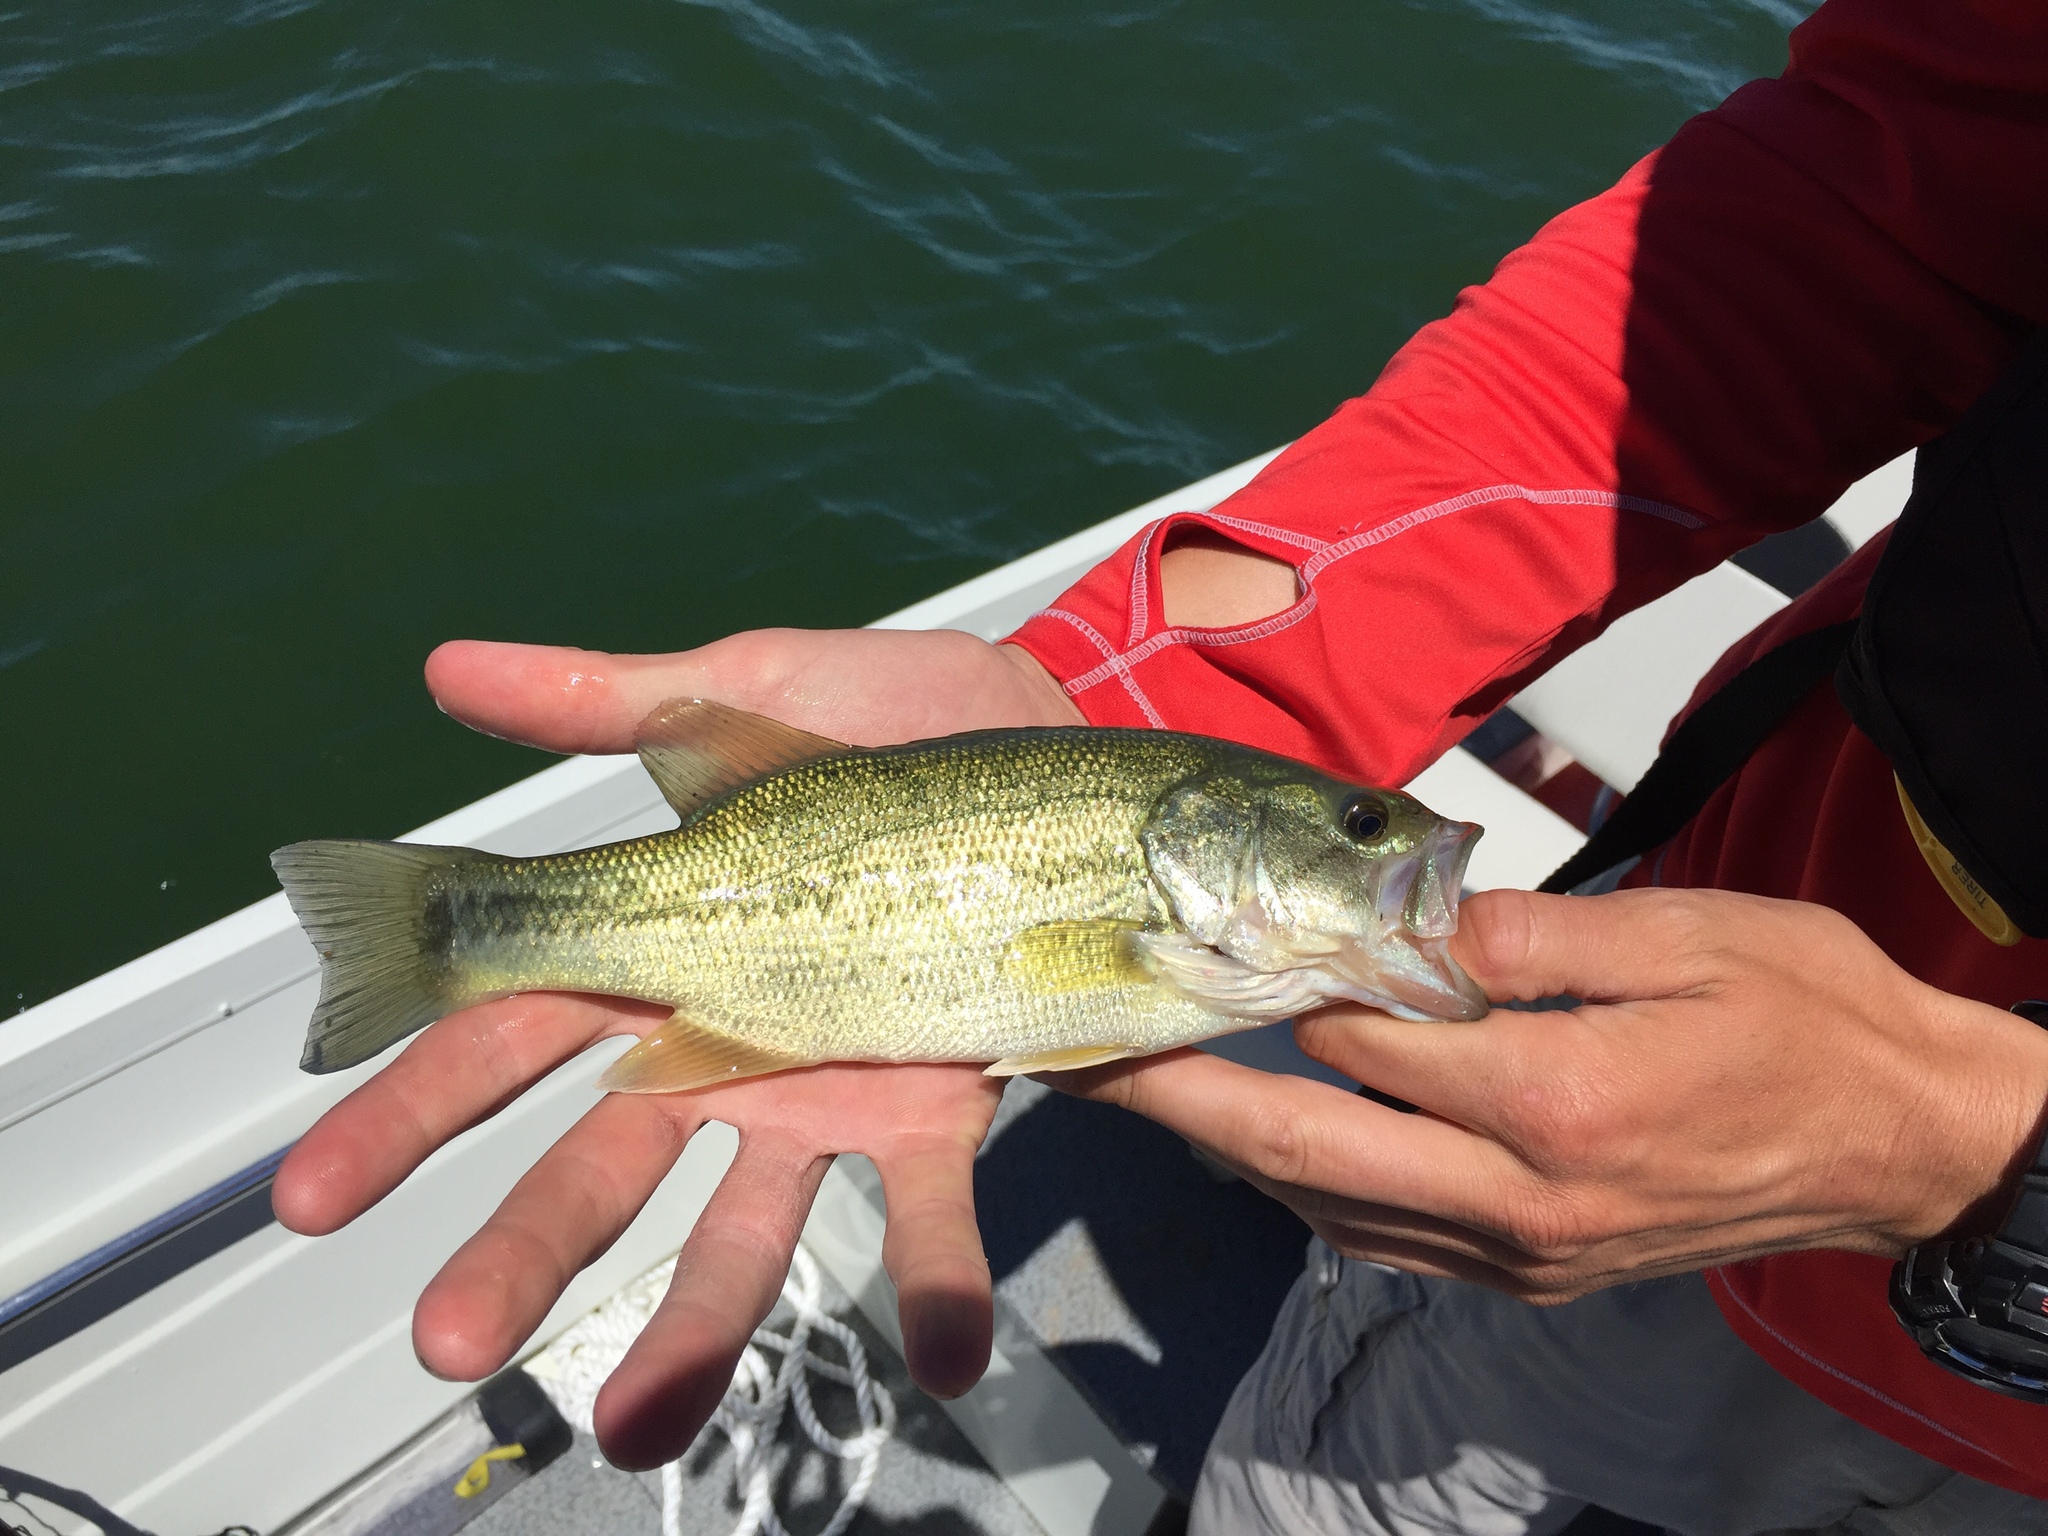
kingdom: Animalia
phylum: Chordata
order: Perciformes
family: Centrarchidae
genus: Micropterus
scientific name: Micropterus
